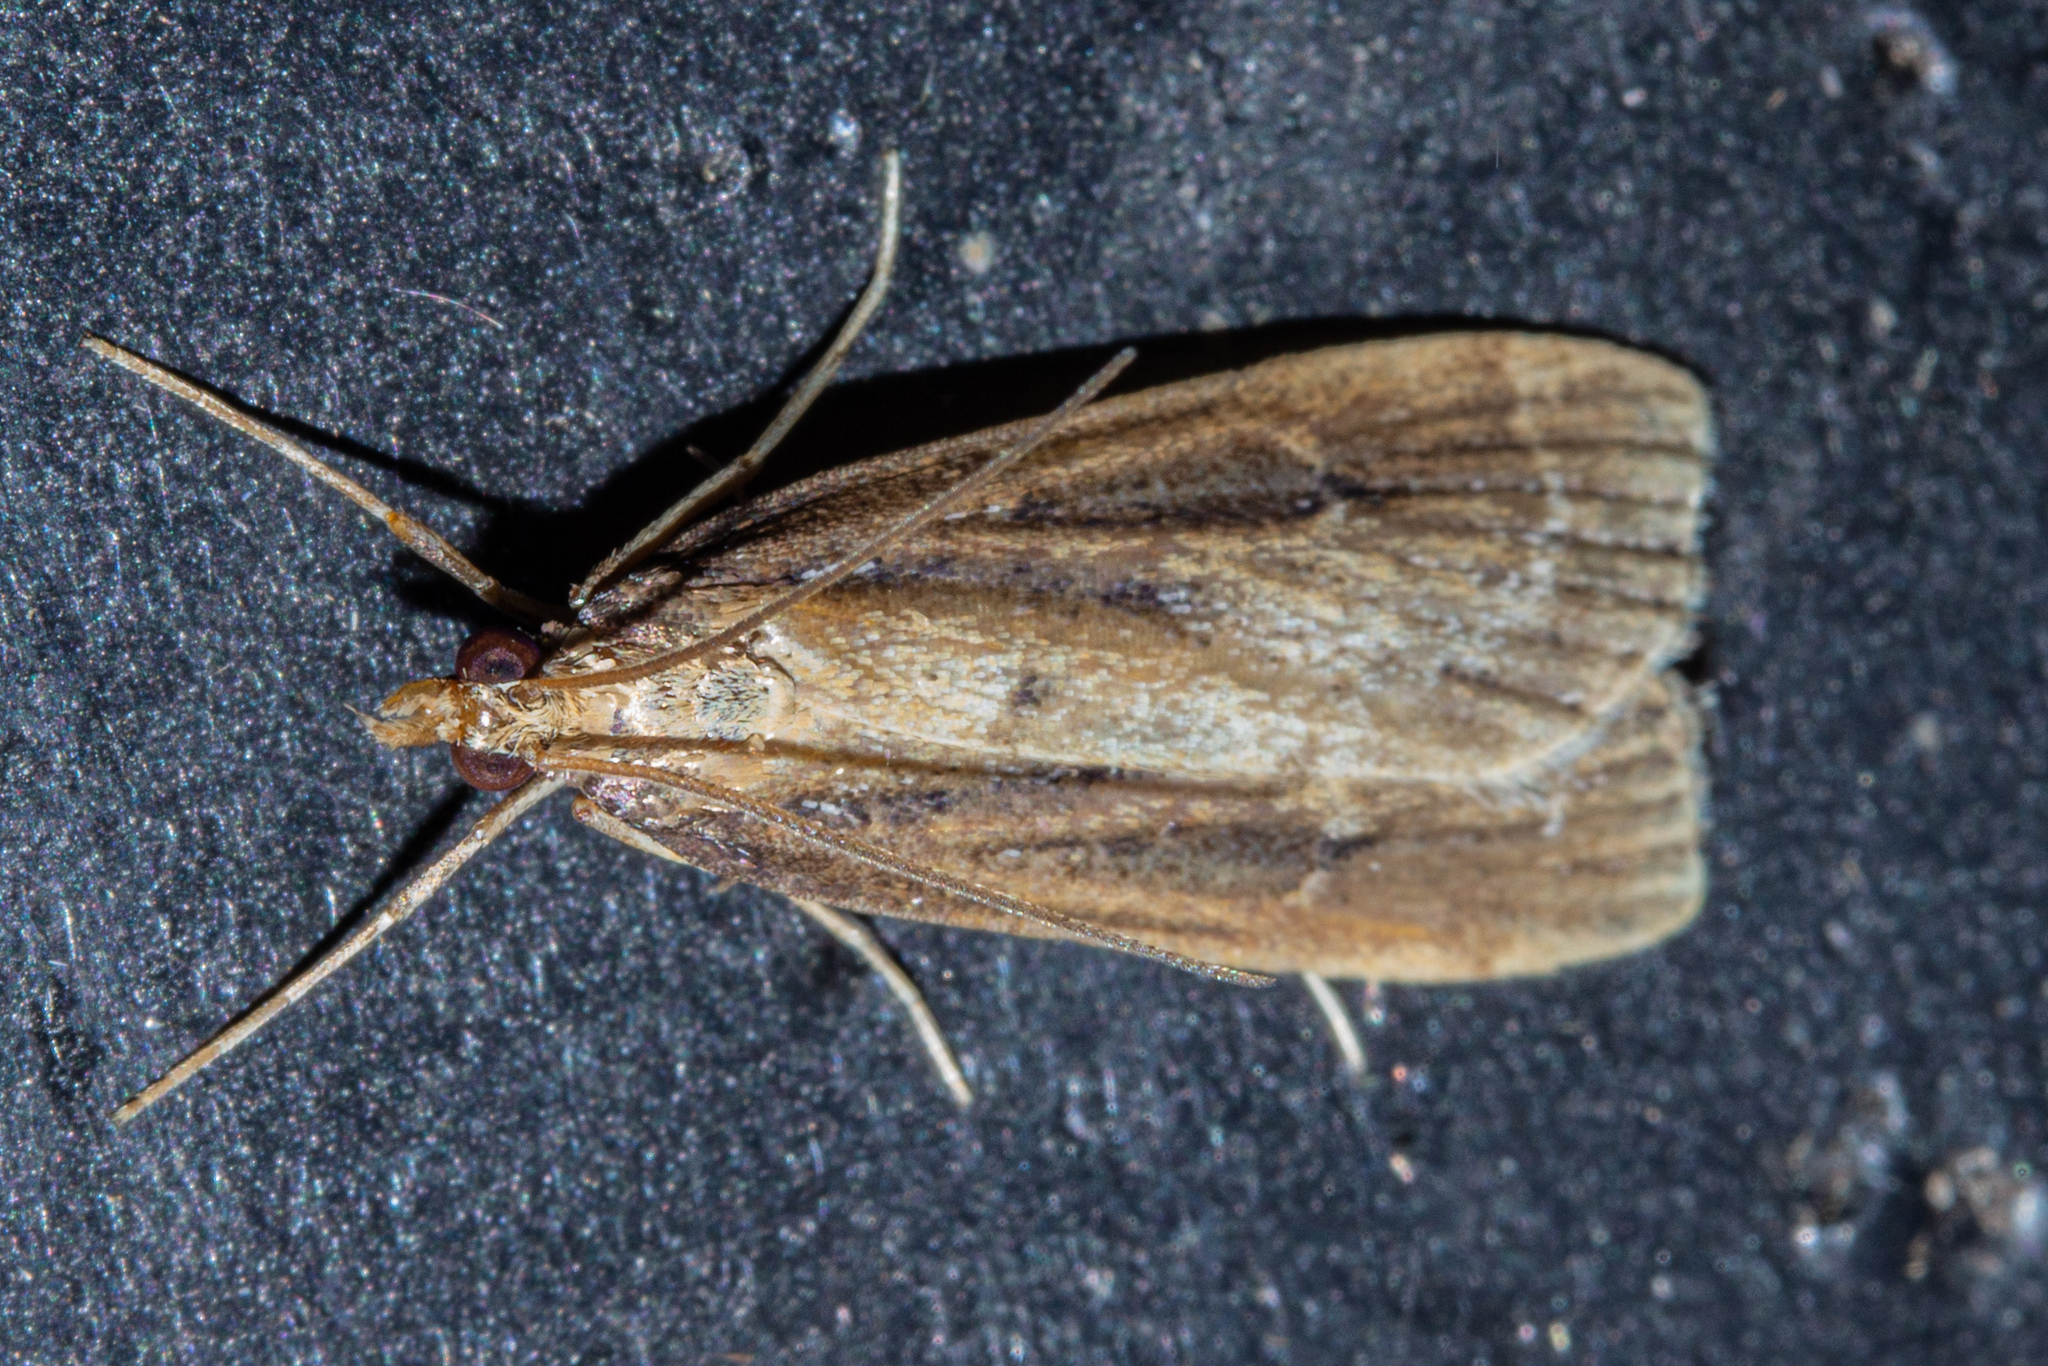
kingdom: Animalia
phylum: Arthropoda
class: Insecta
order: Lepidoptera
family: Crambidae
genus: Eudonia
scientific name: Eudonia octophora
